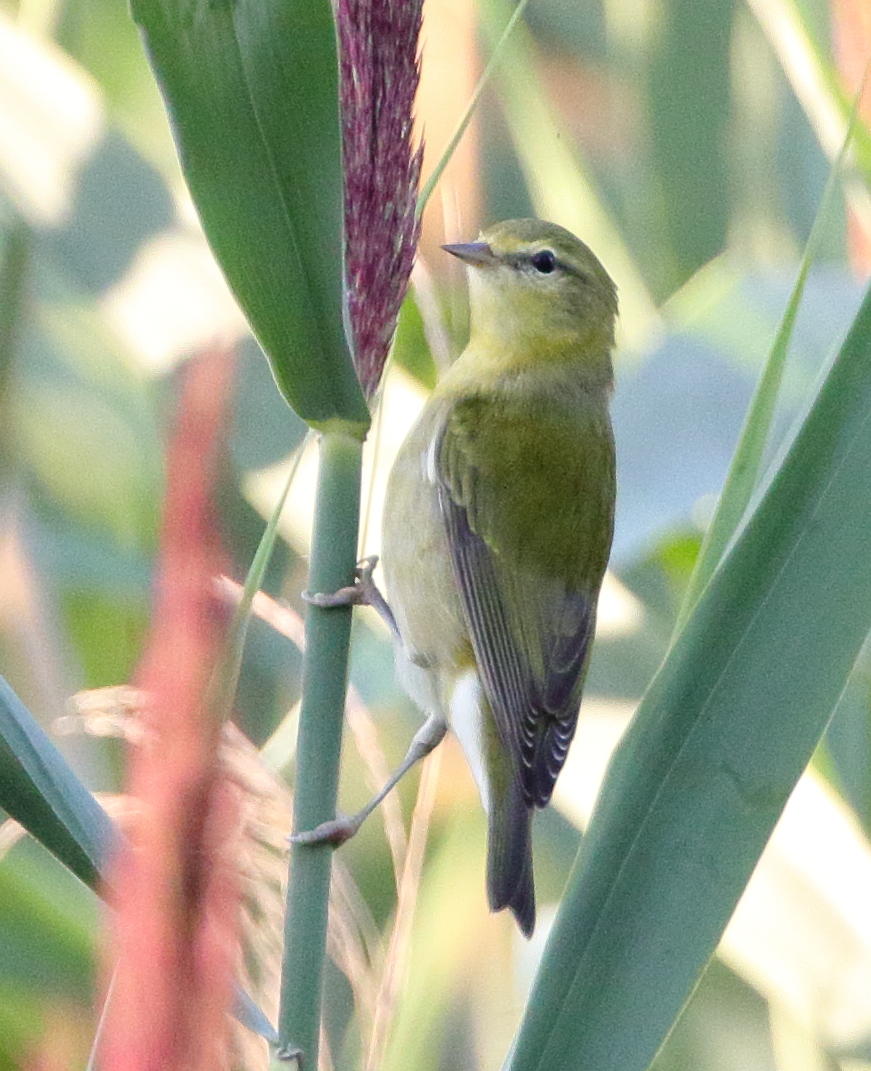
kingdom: Animalia
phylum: Chordata
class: Aves
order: Passeriformes
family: Parulidae
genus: Leiothlypis
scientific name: Leiothlypis peregrina
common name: Tennessee warbler
